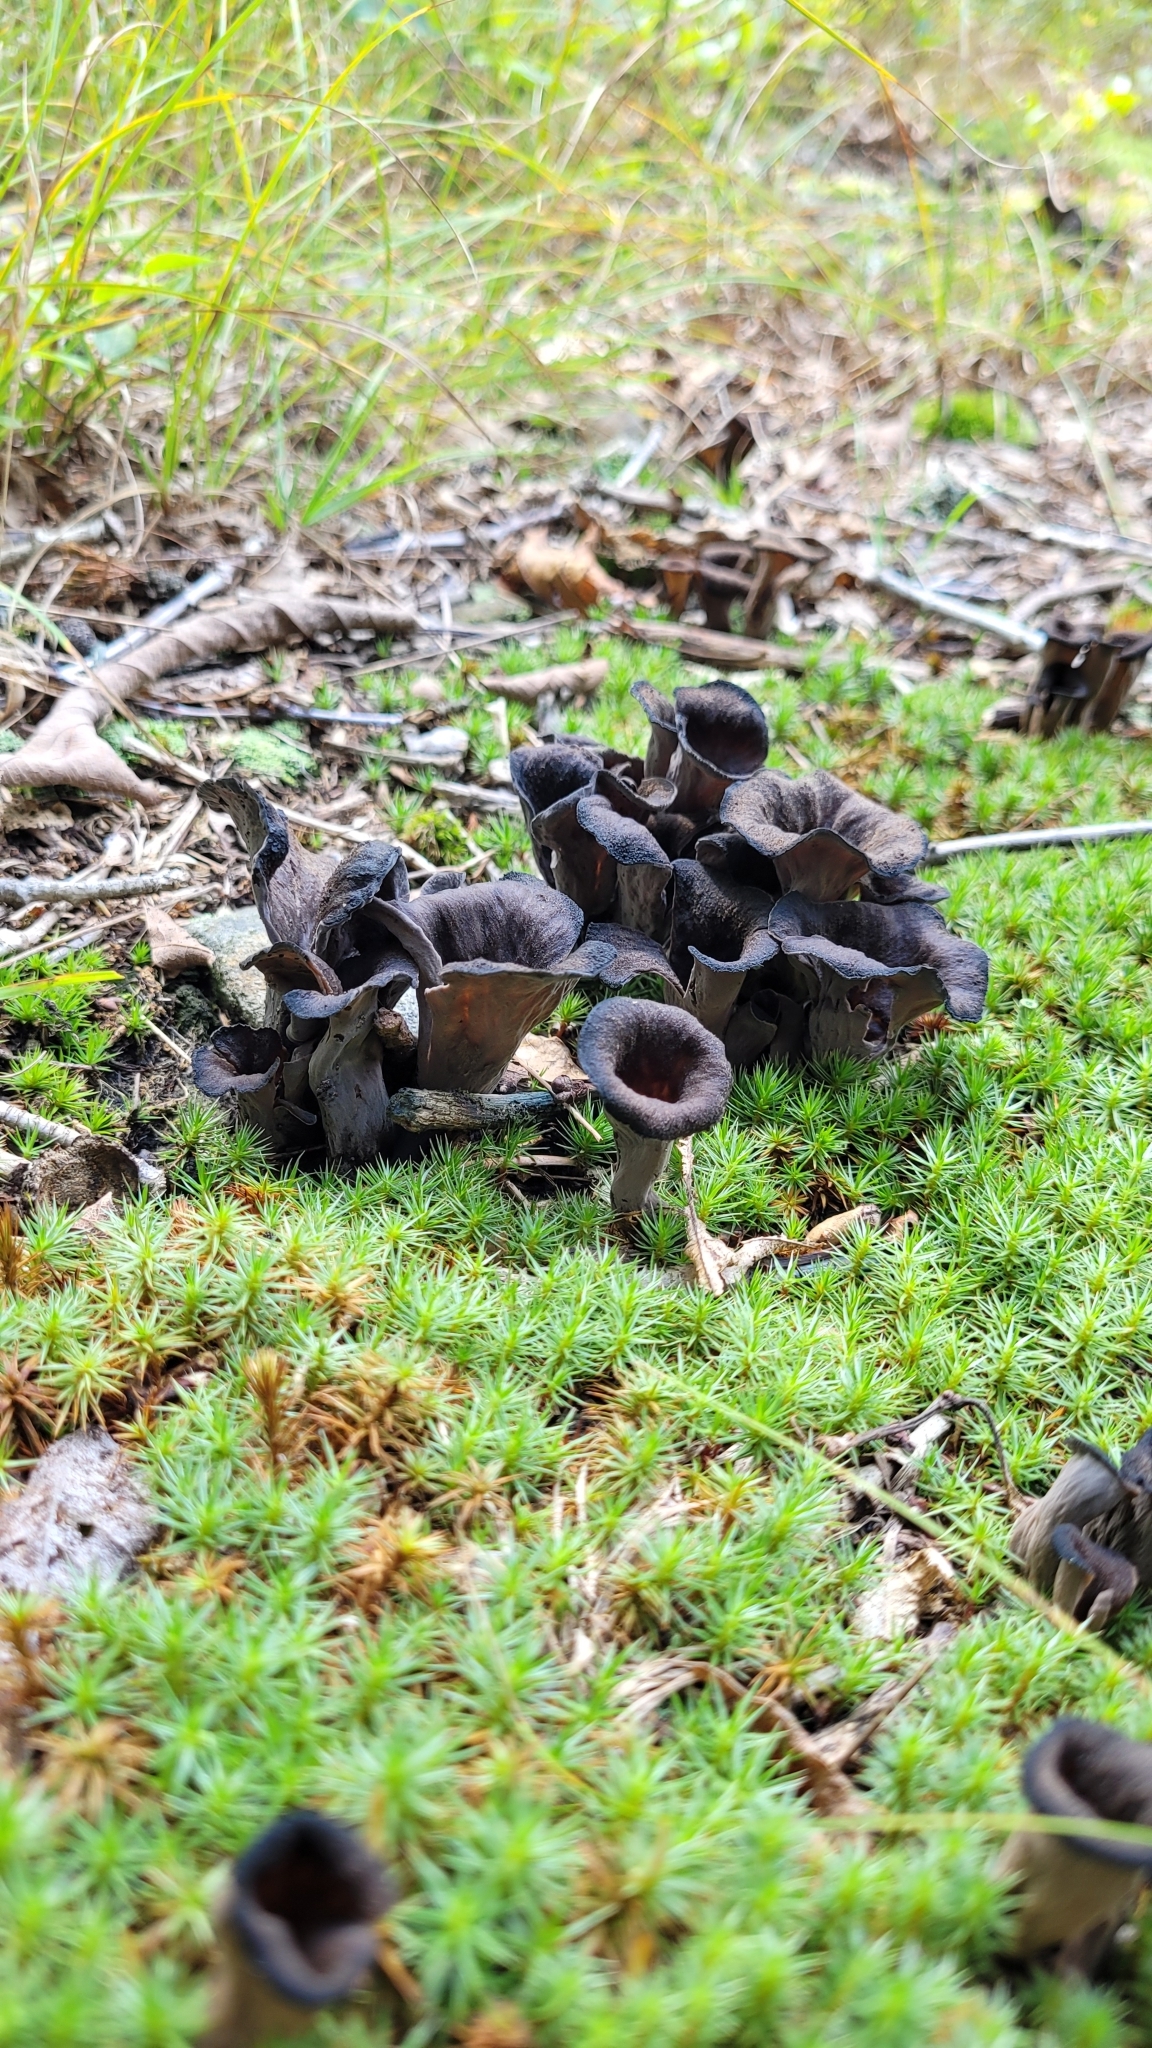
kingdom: Fungi
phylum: Basidiomycota
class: Agaricomycetes
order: Cantharellales
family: Hydnaceae
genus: Craterellus
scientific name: Craterellus cornucopioides
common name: Horn of plenty
